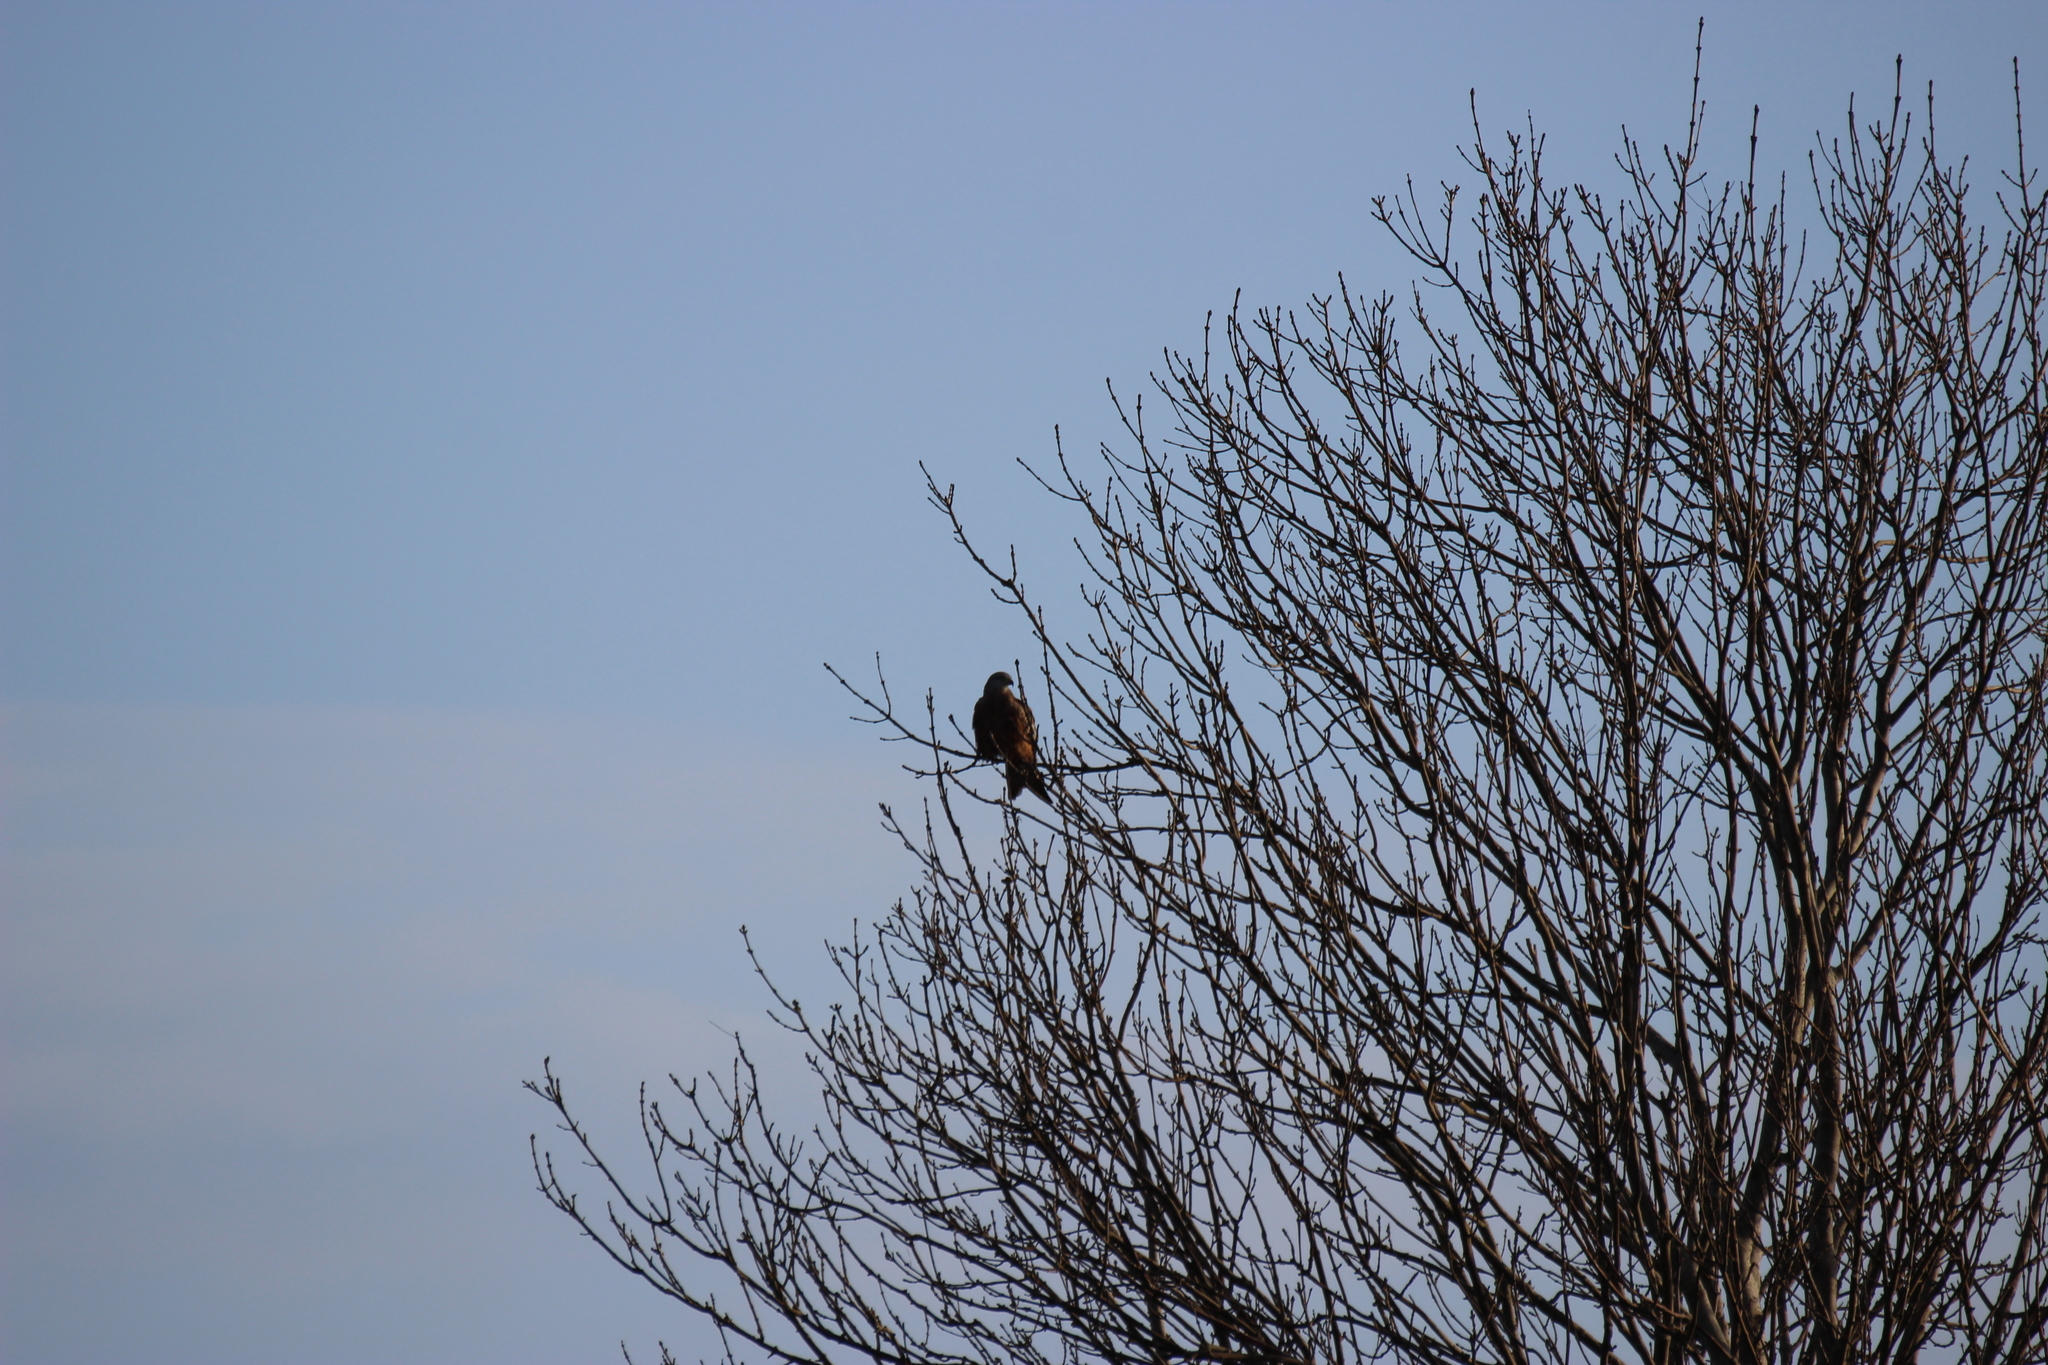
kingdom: Animalia
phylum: Chordata
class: Aves
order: Accipitriformes
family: Accipitridae
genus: Milvus
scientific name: Milvus milvus
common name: Red kite
